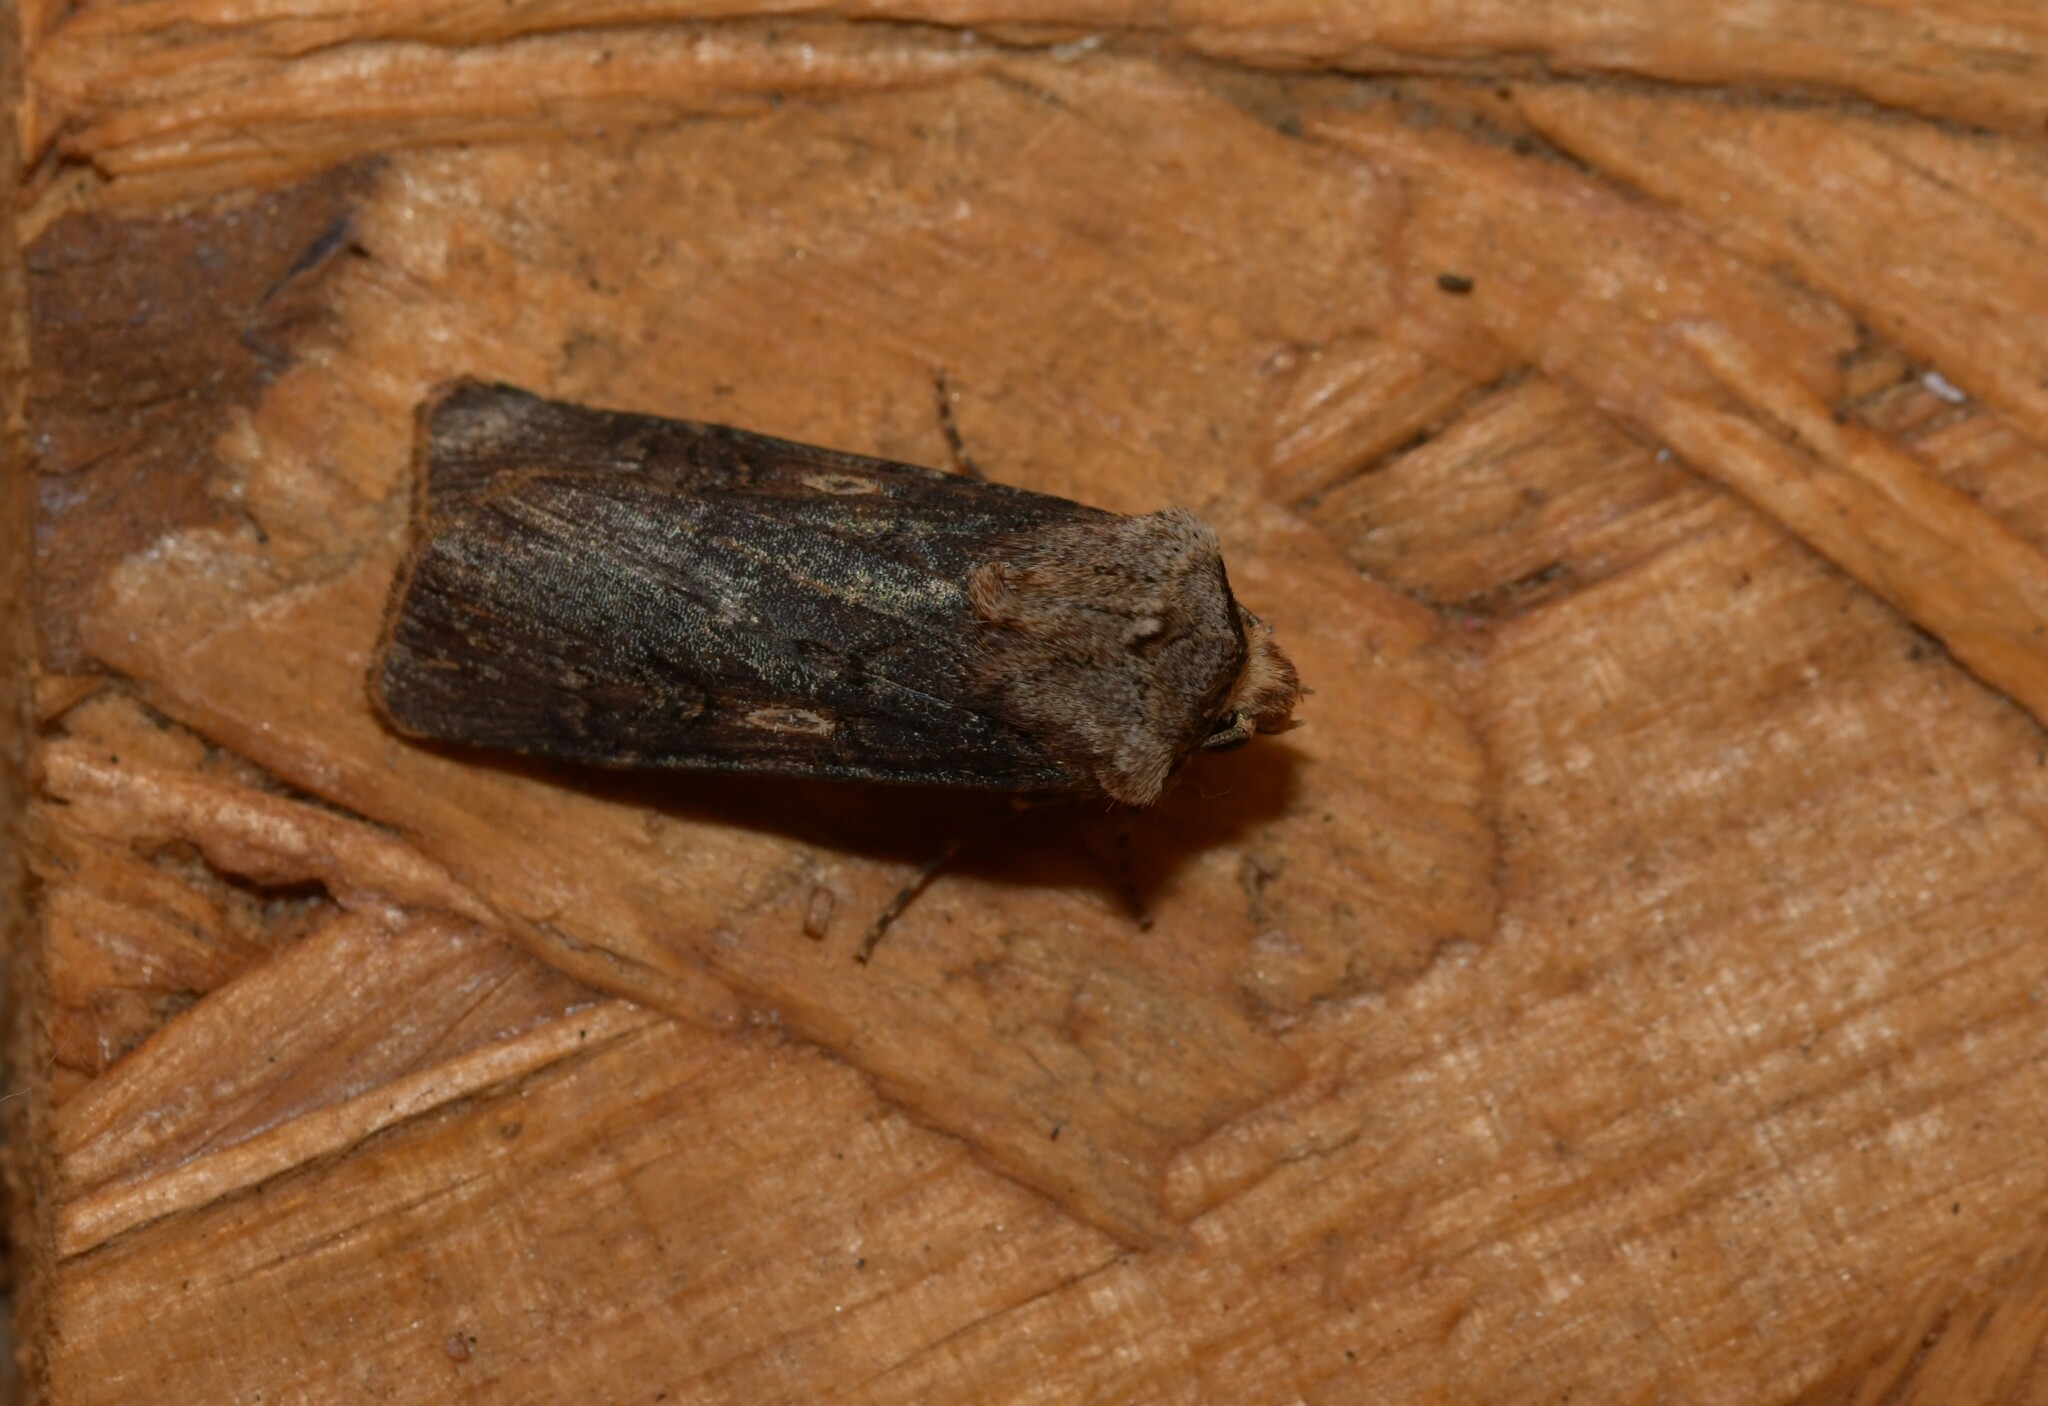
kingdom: Animalia
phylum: Arthropoda
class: Insecta
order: Lepidoptera
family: Noctuidae
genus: Agrotis
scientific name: Agrotis puta
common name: Shuttle-shaped dart
